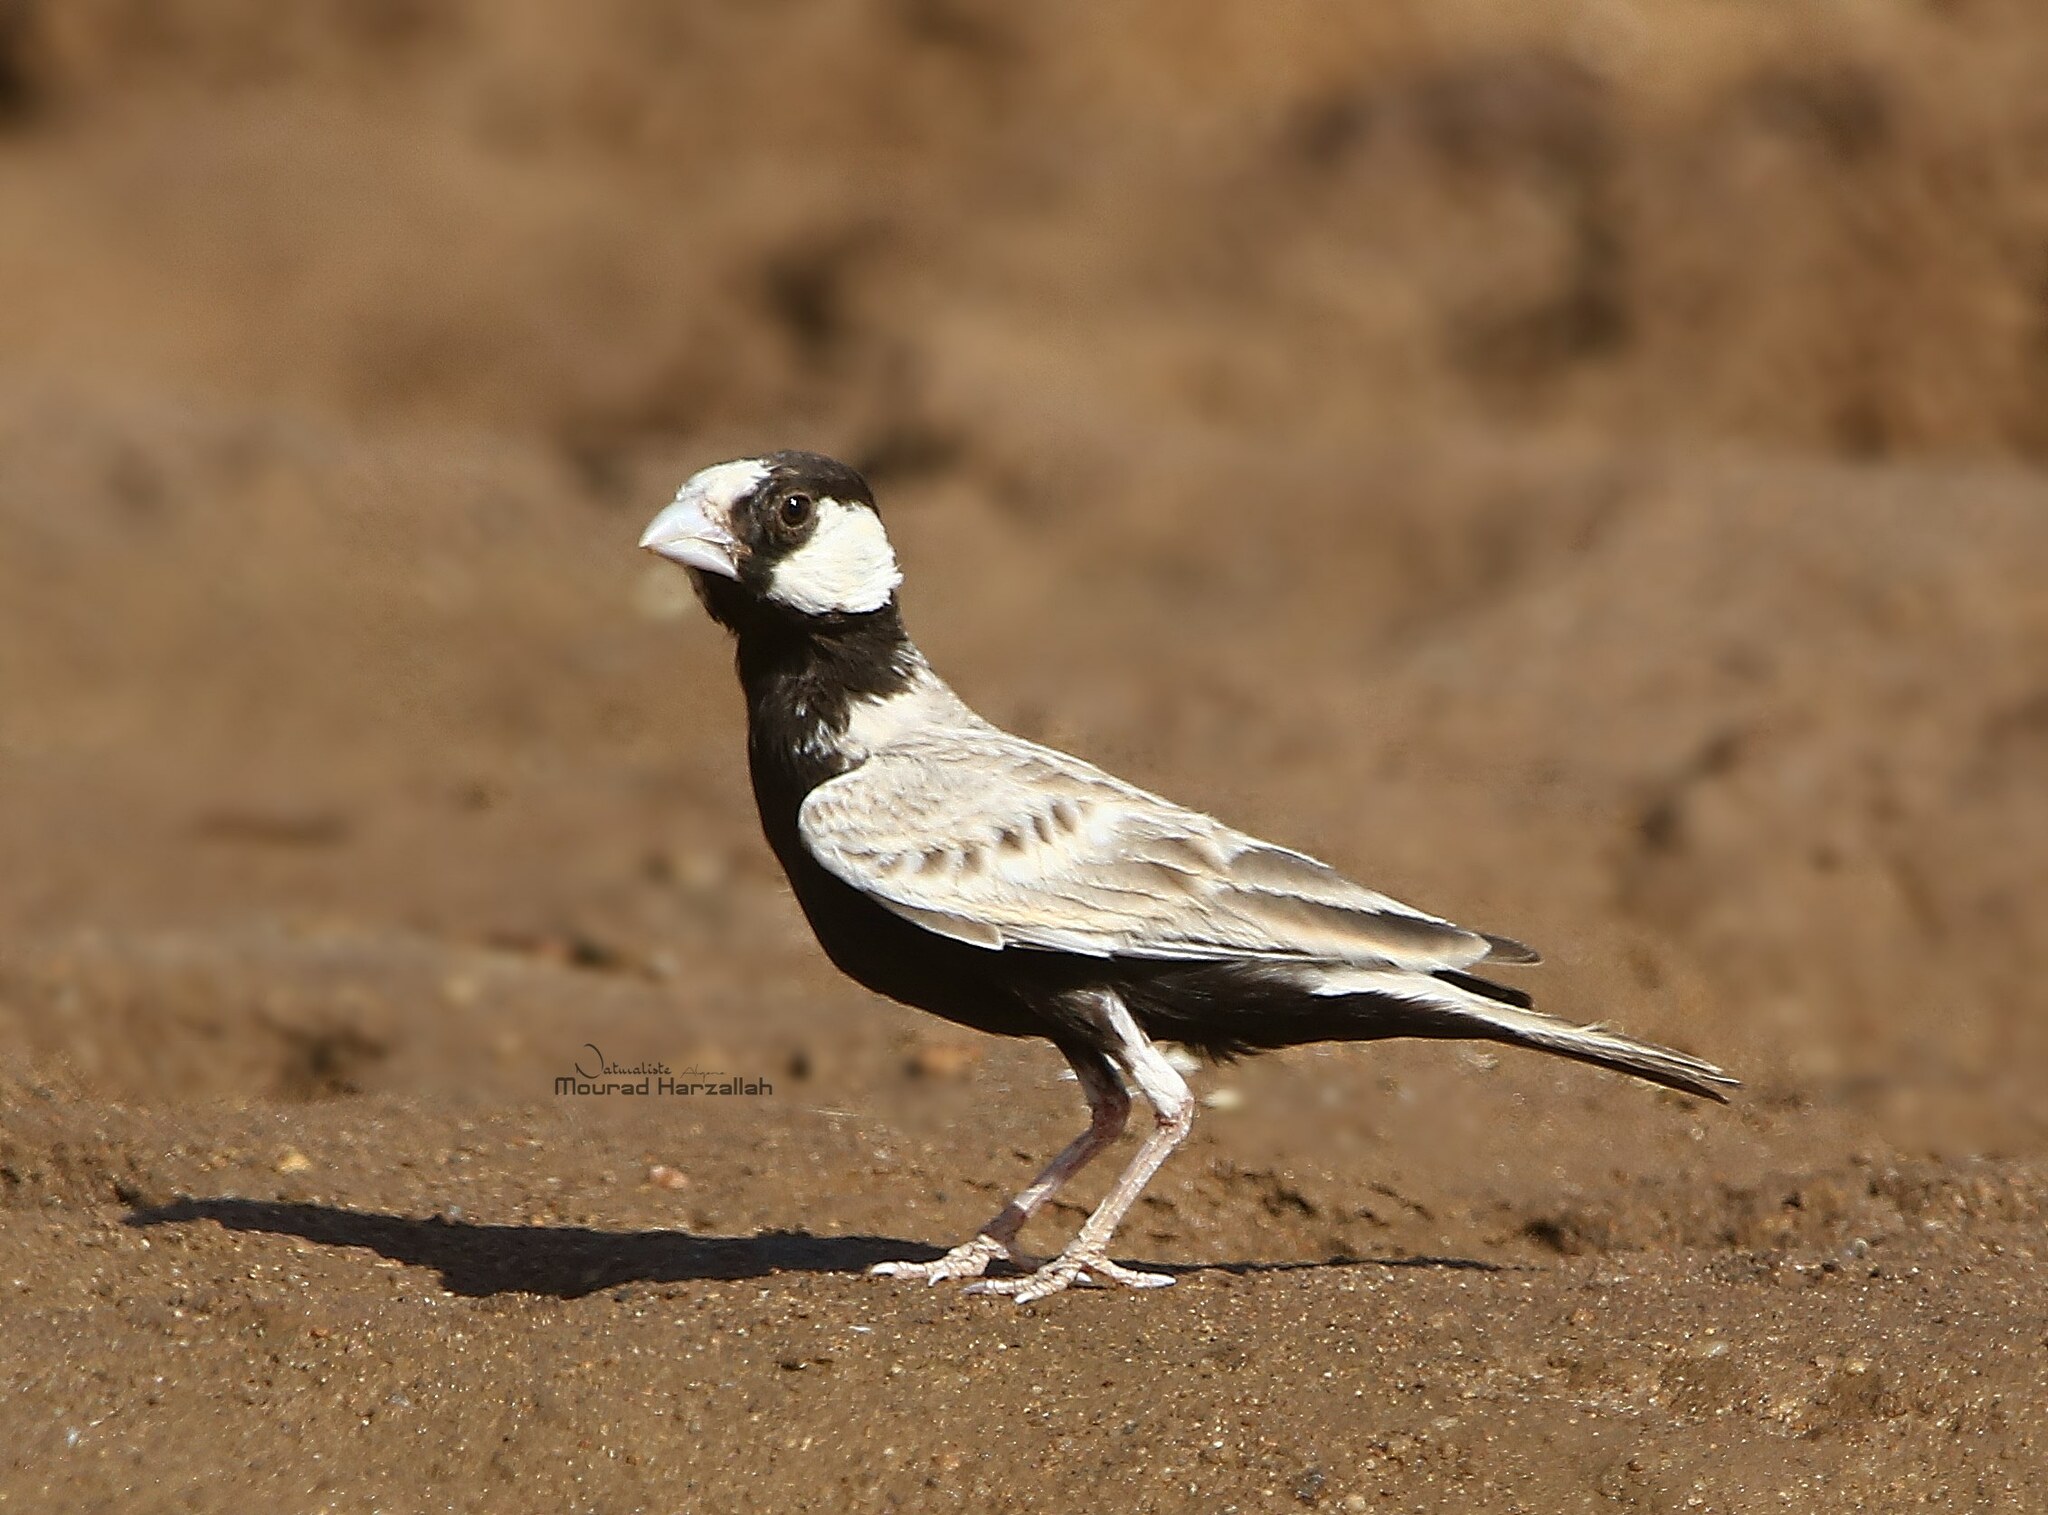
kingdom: Animalia
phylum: Chordata
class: Aves
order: Passeriformes
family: Alaudidae
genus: Eremopterix
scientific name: Eremopterix nigriceps
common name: Black-crowned sparrow-lark
